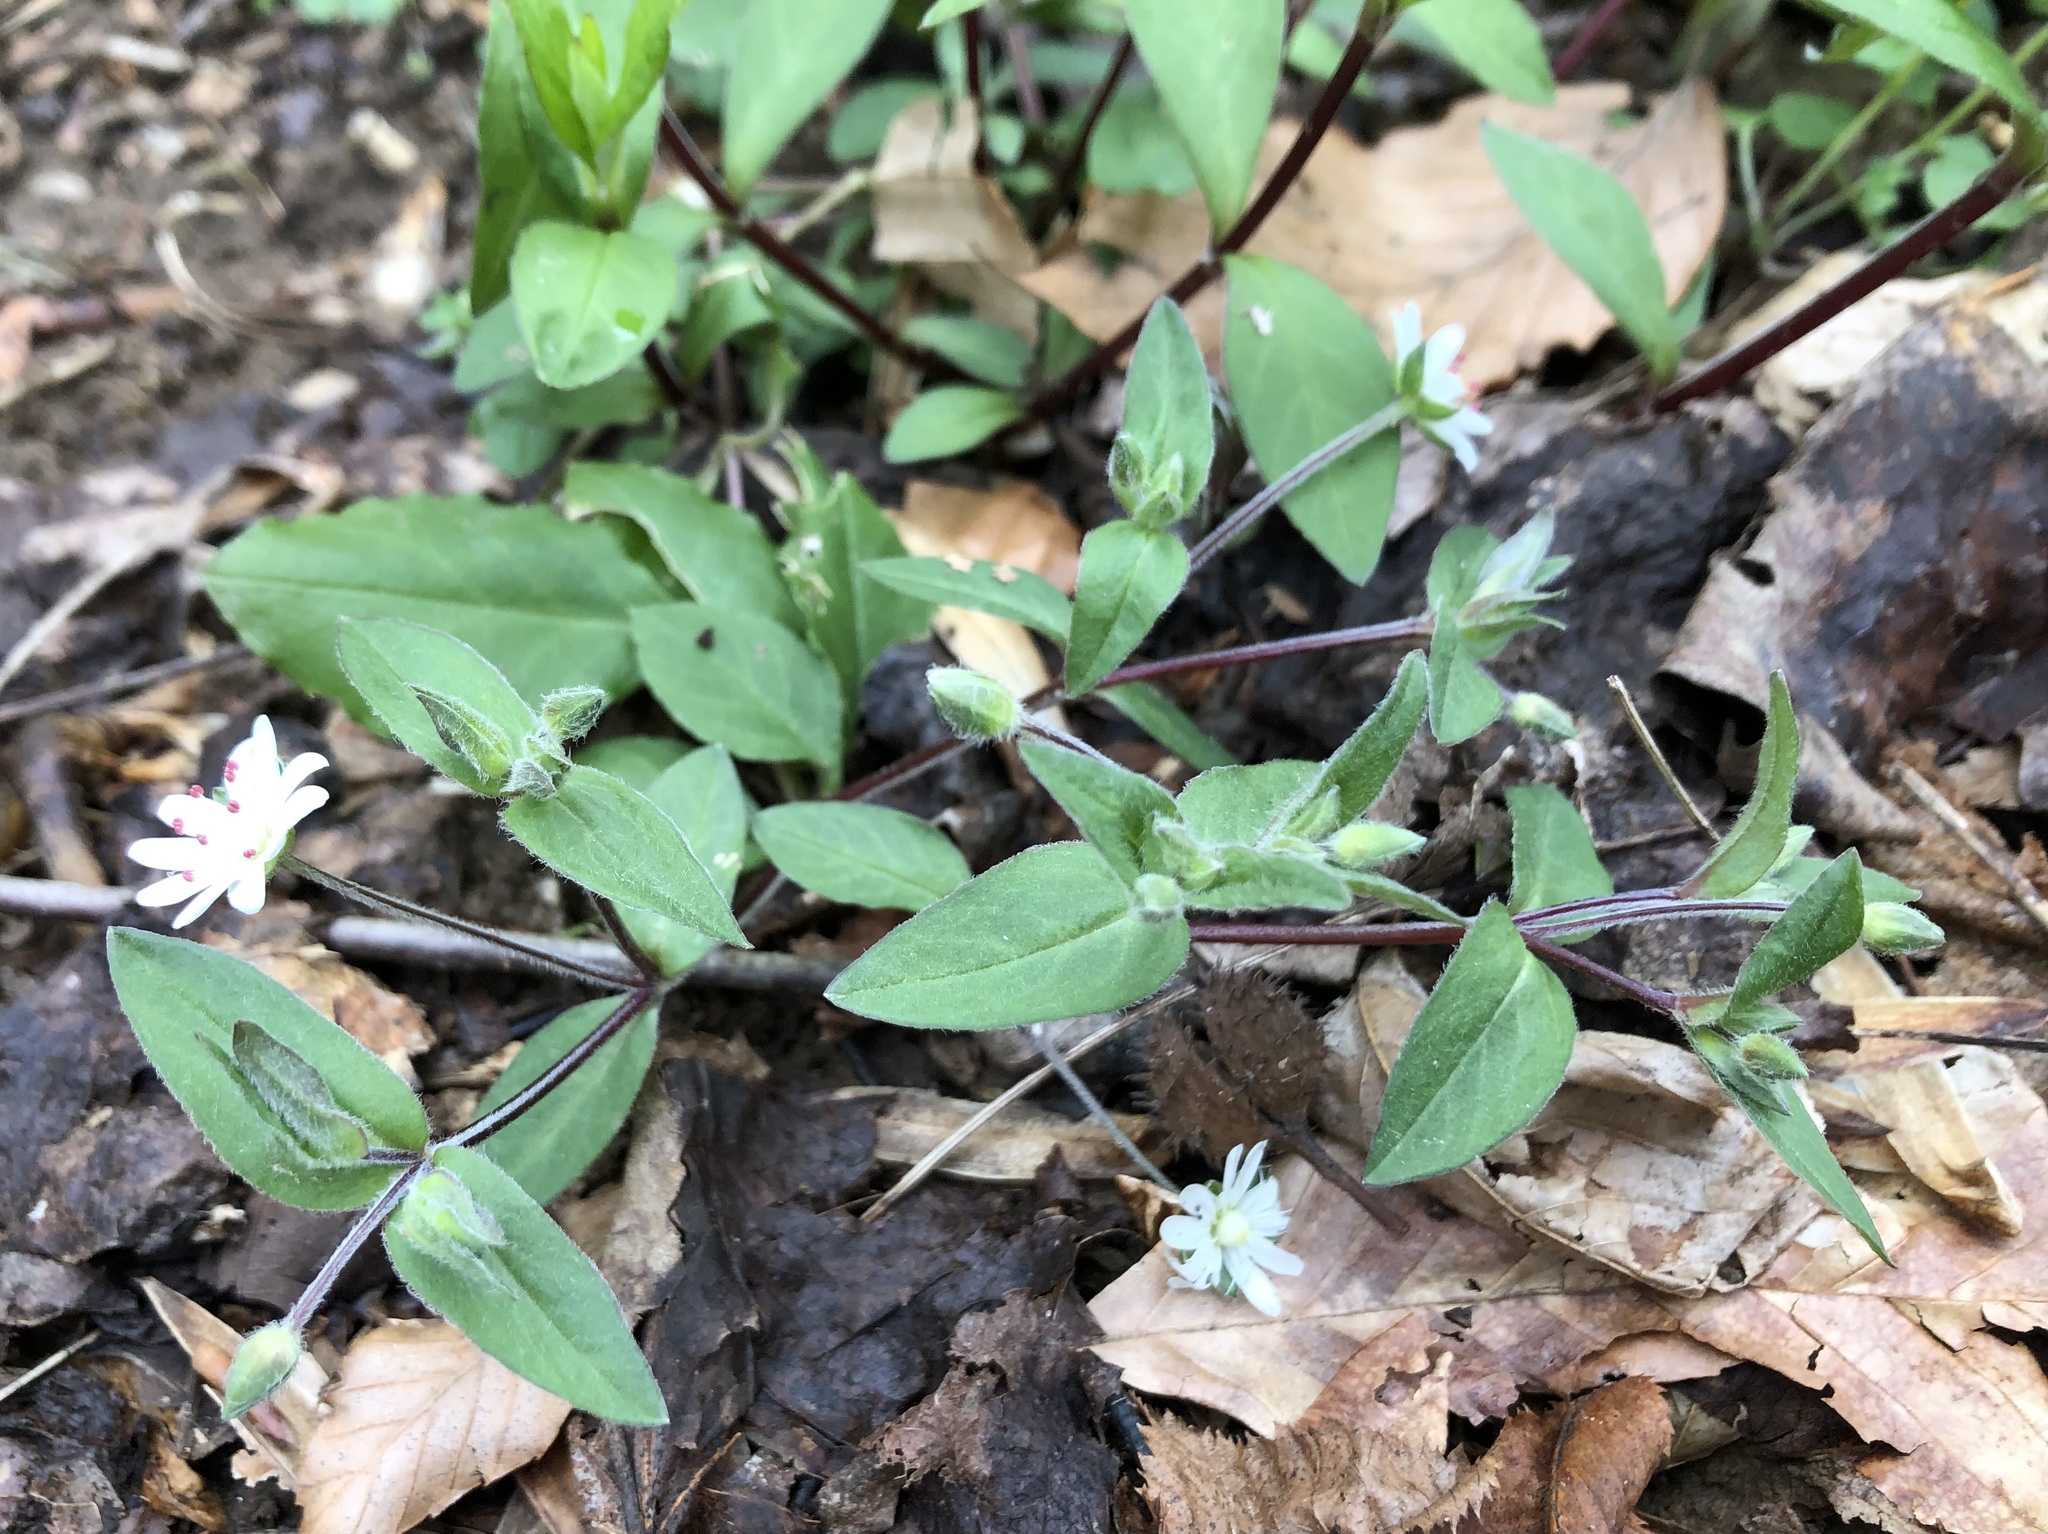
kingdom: Plantae
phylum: Tracheophyta
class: Magnoliopsida
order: Caryophyllales
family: Caryophyllaceae
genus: Stellaria
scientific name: Stellaria pubera
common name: Star chickweed
